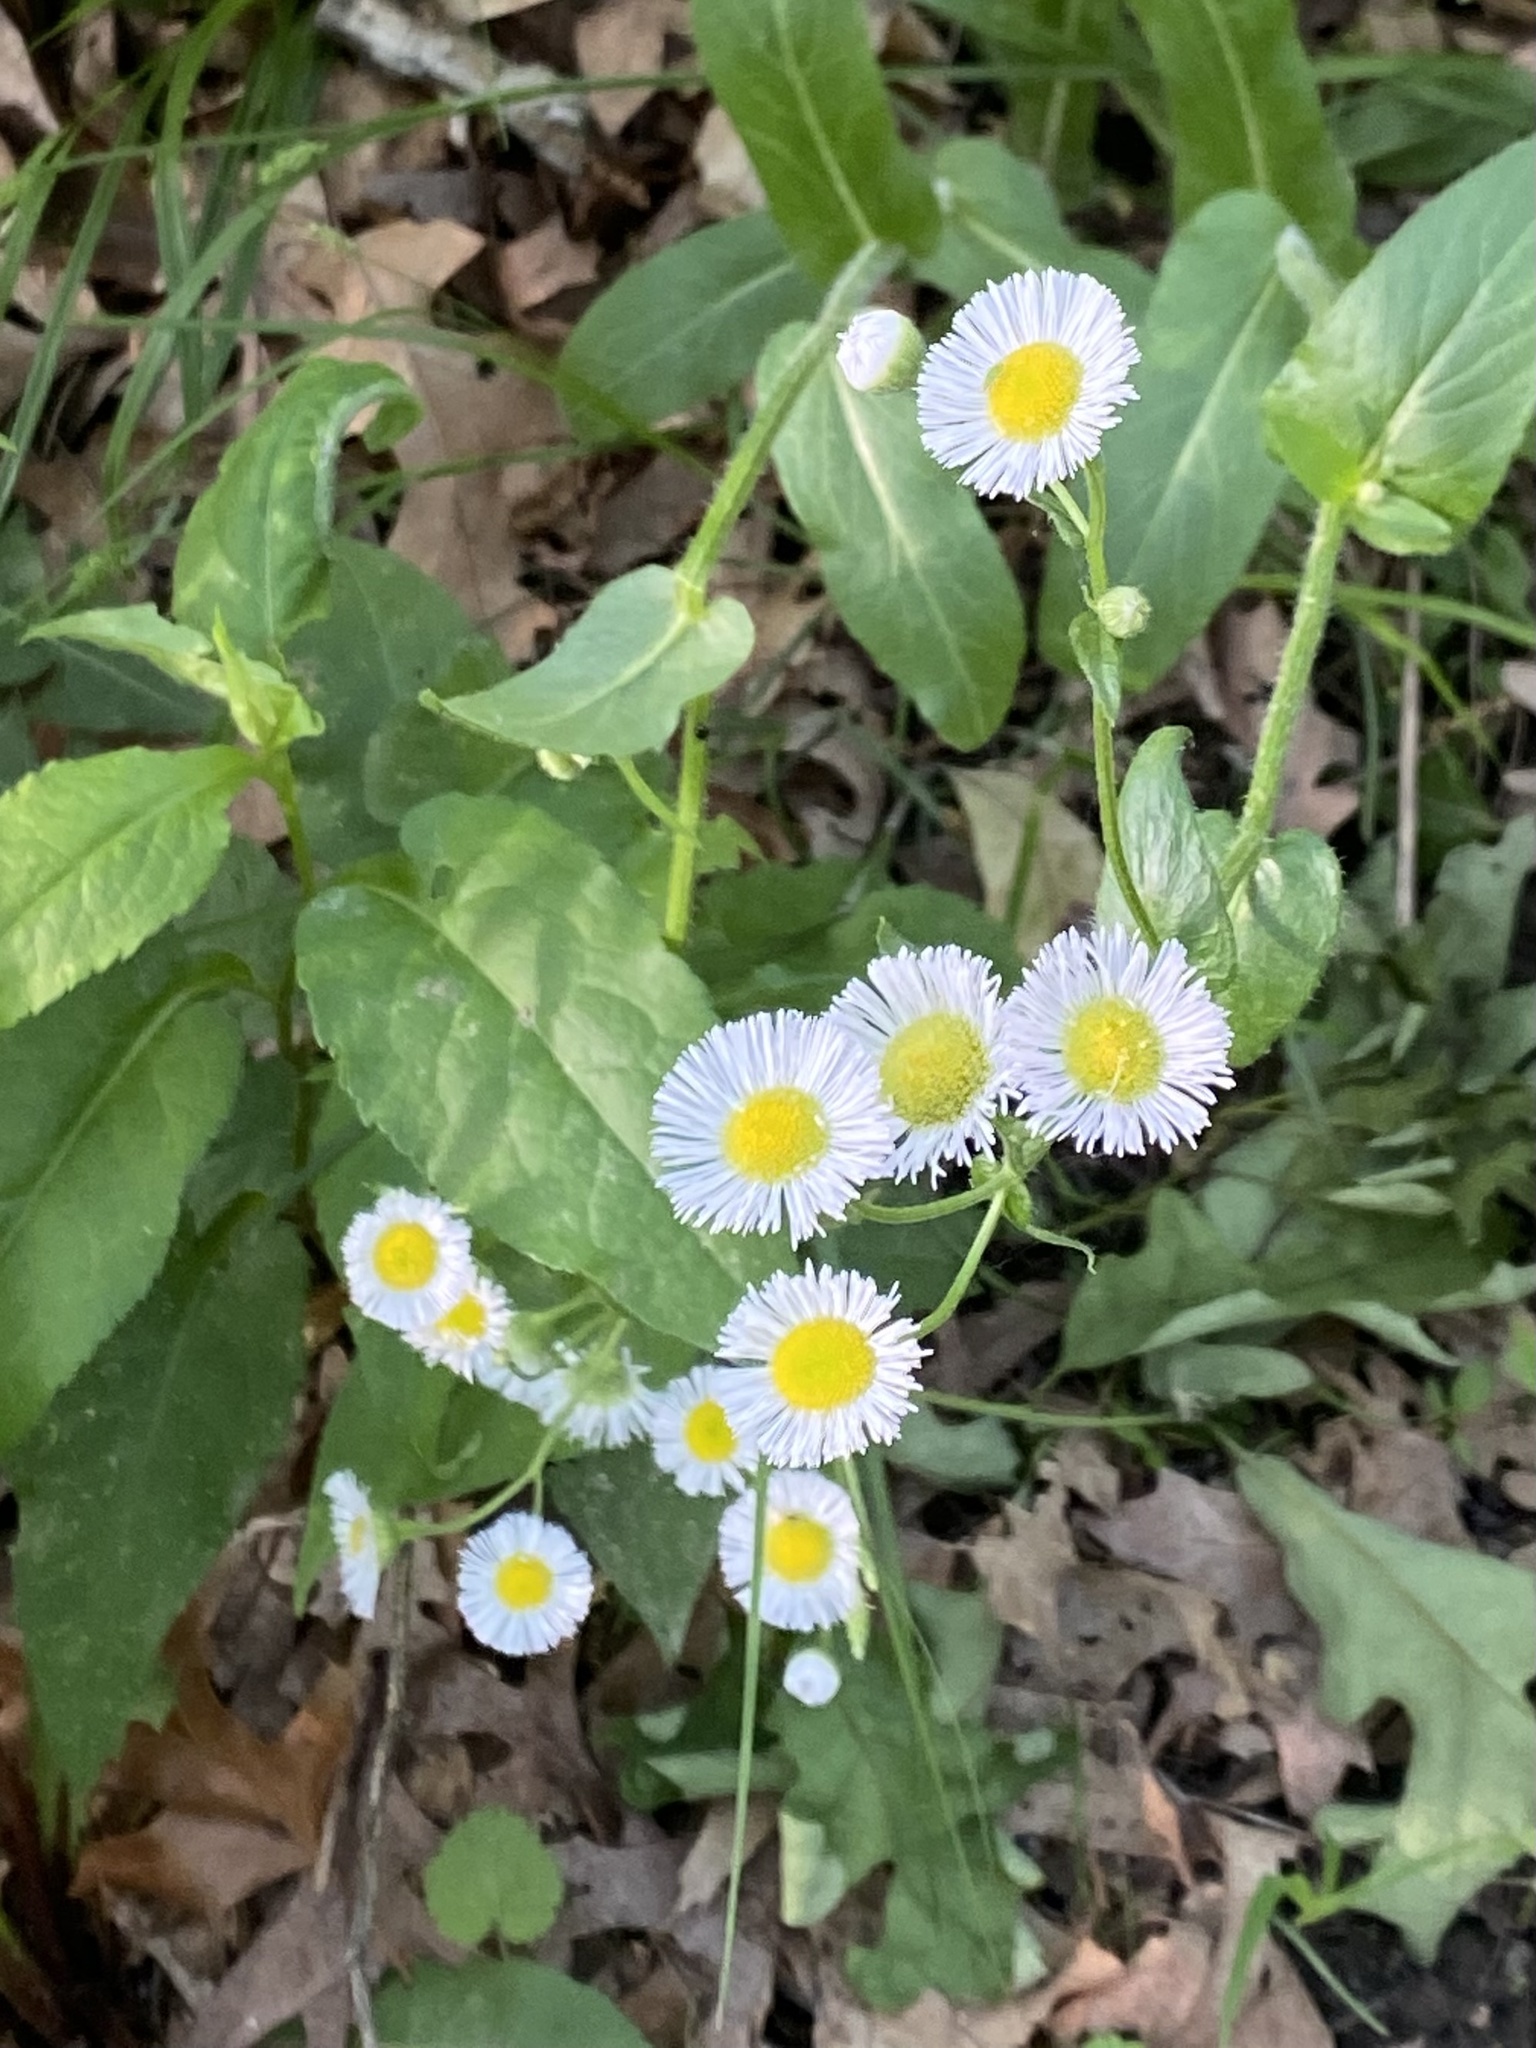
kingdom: Plantae
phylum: Tracheophyta
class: Magnoliopsida
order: Asterales
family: Asteraceae
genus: Erigeron
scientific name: Erigeron philadelphicus
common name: Robin's-plantain
